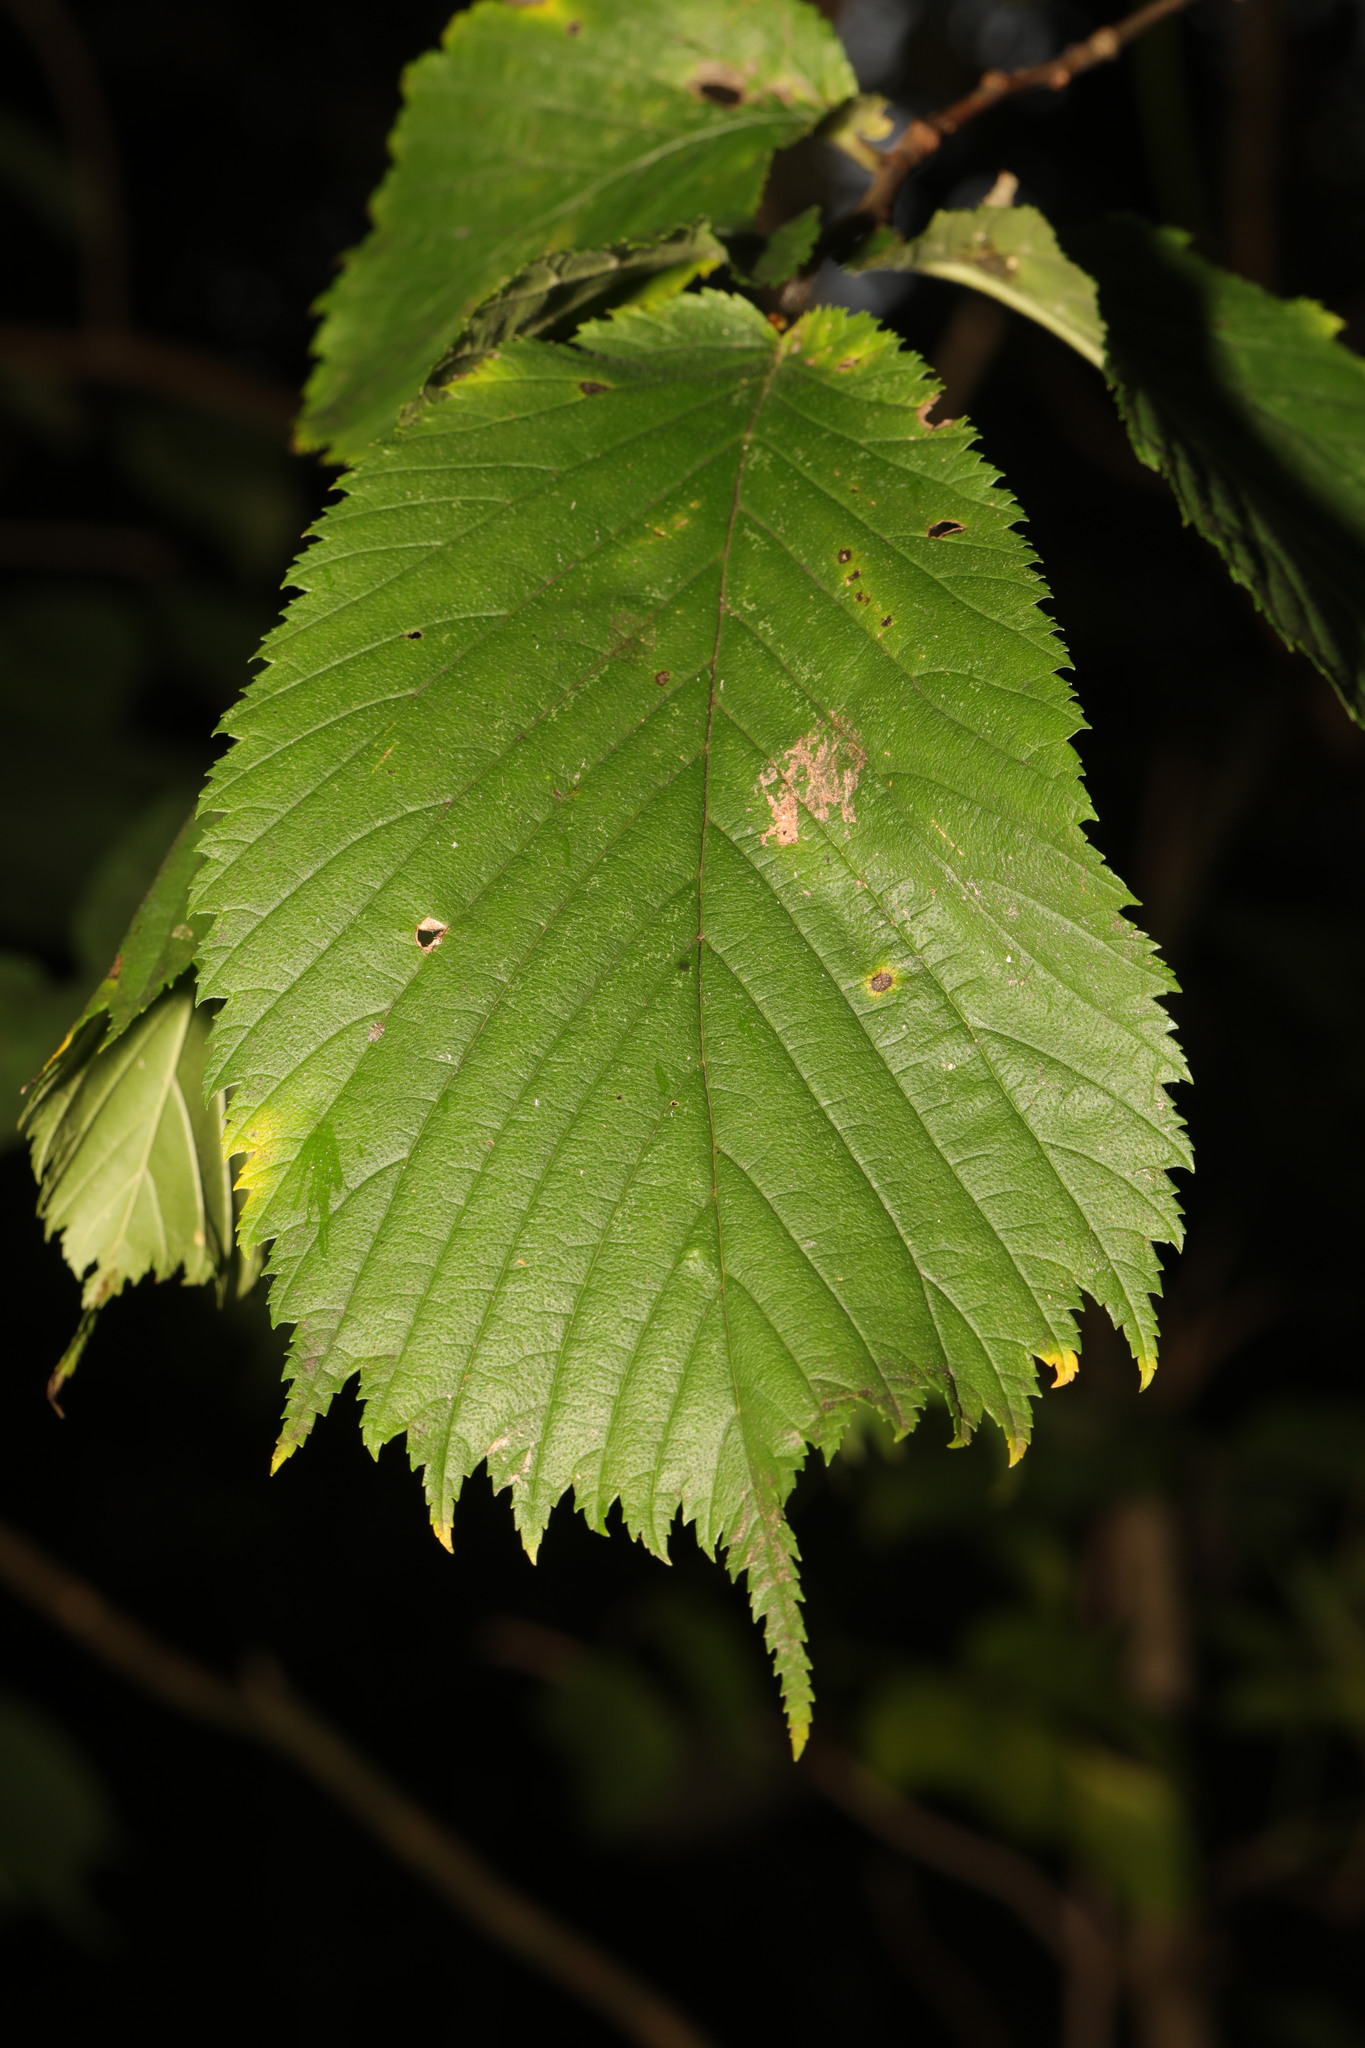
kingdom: Plantae
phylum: Tracheophyta
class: Magnoliopsida
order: Rosales
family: Ulmaceae
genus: Ulmus
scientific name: Ulmus glabra
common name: Wych elm
